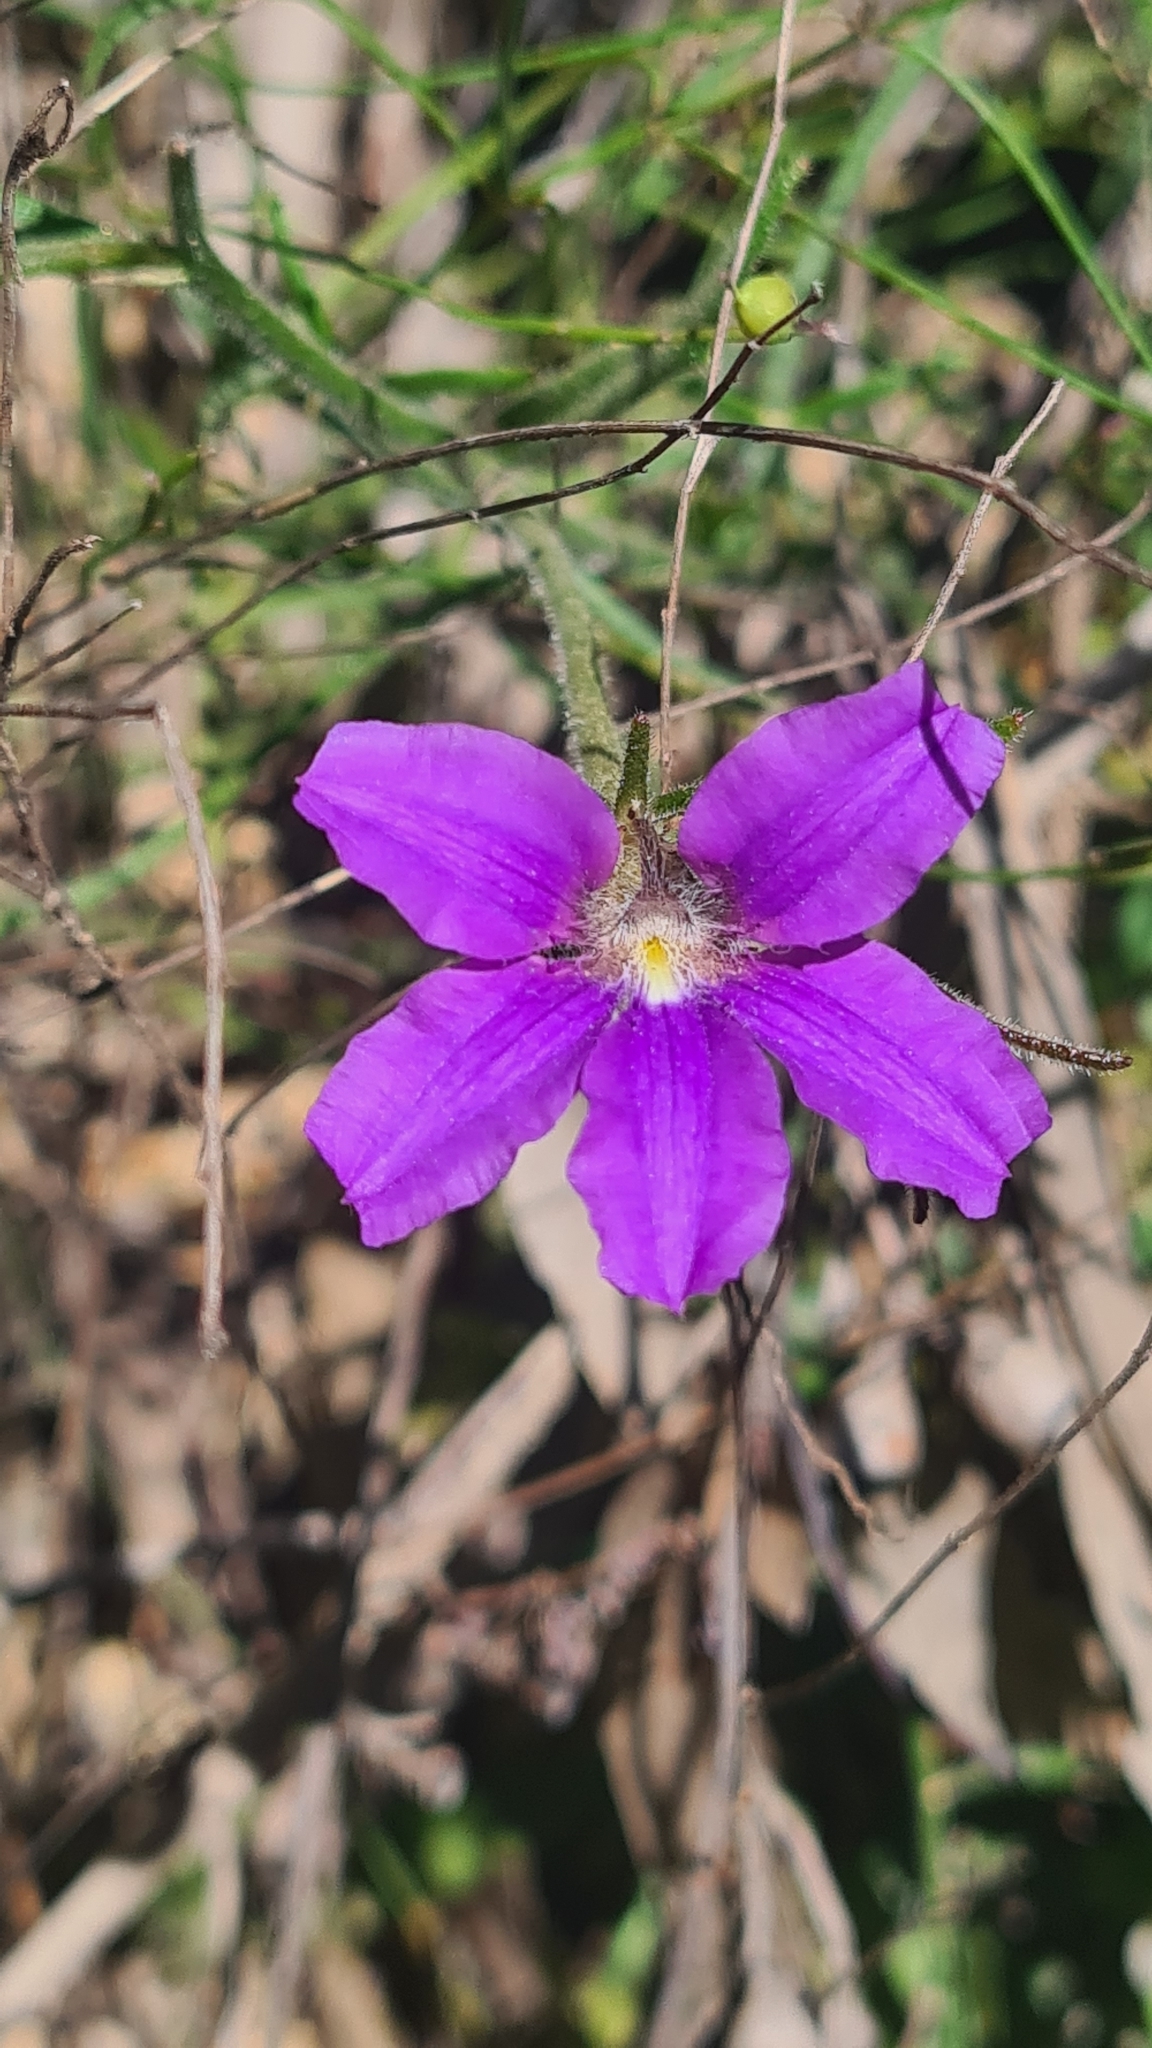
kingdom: Plantae
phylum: Tracheophyta
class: Magnoliopsida
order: Asterales
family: Goodeniaceae
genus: Scaevola
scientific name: Scaevola ramosissima
